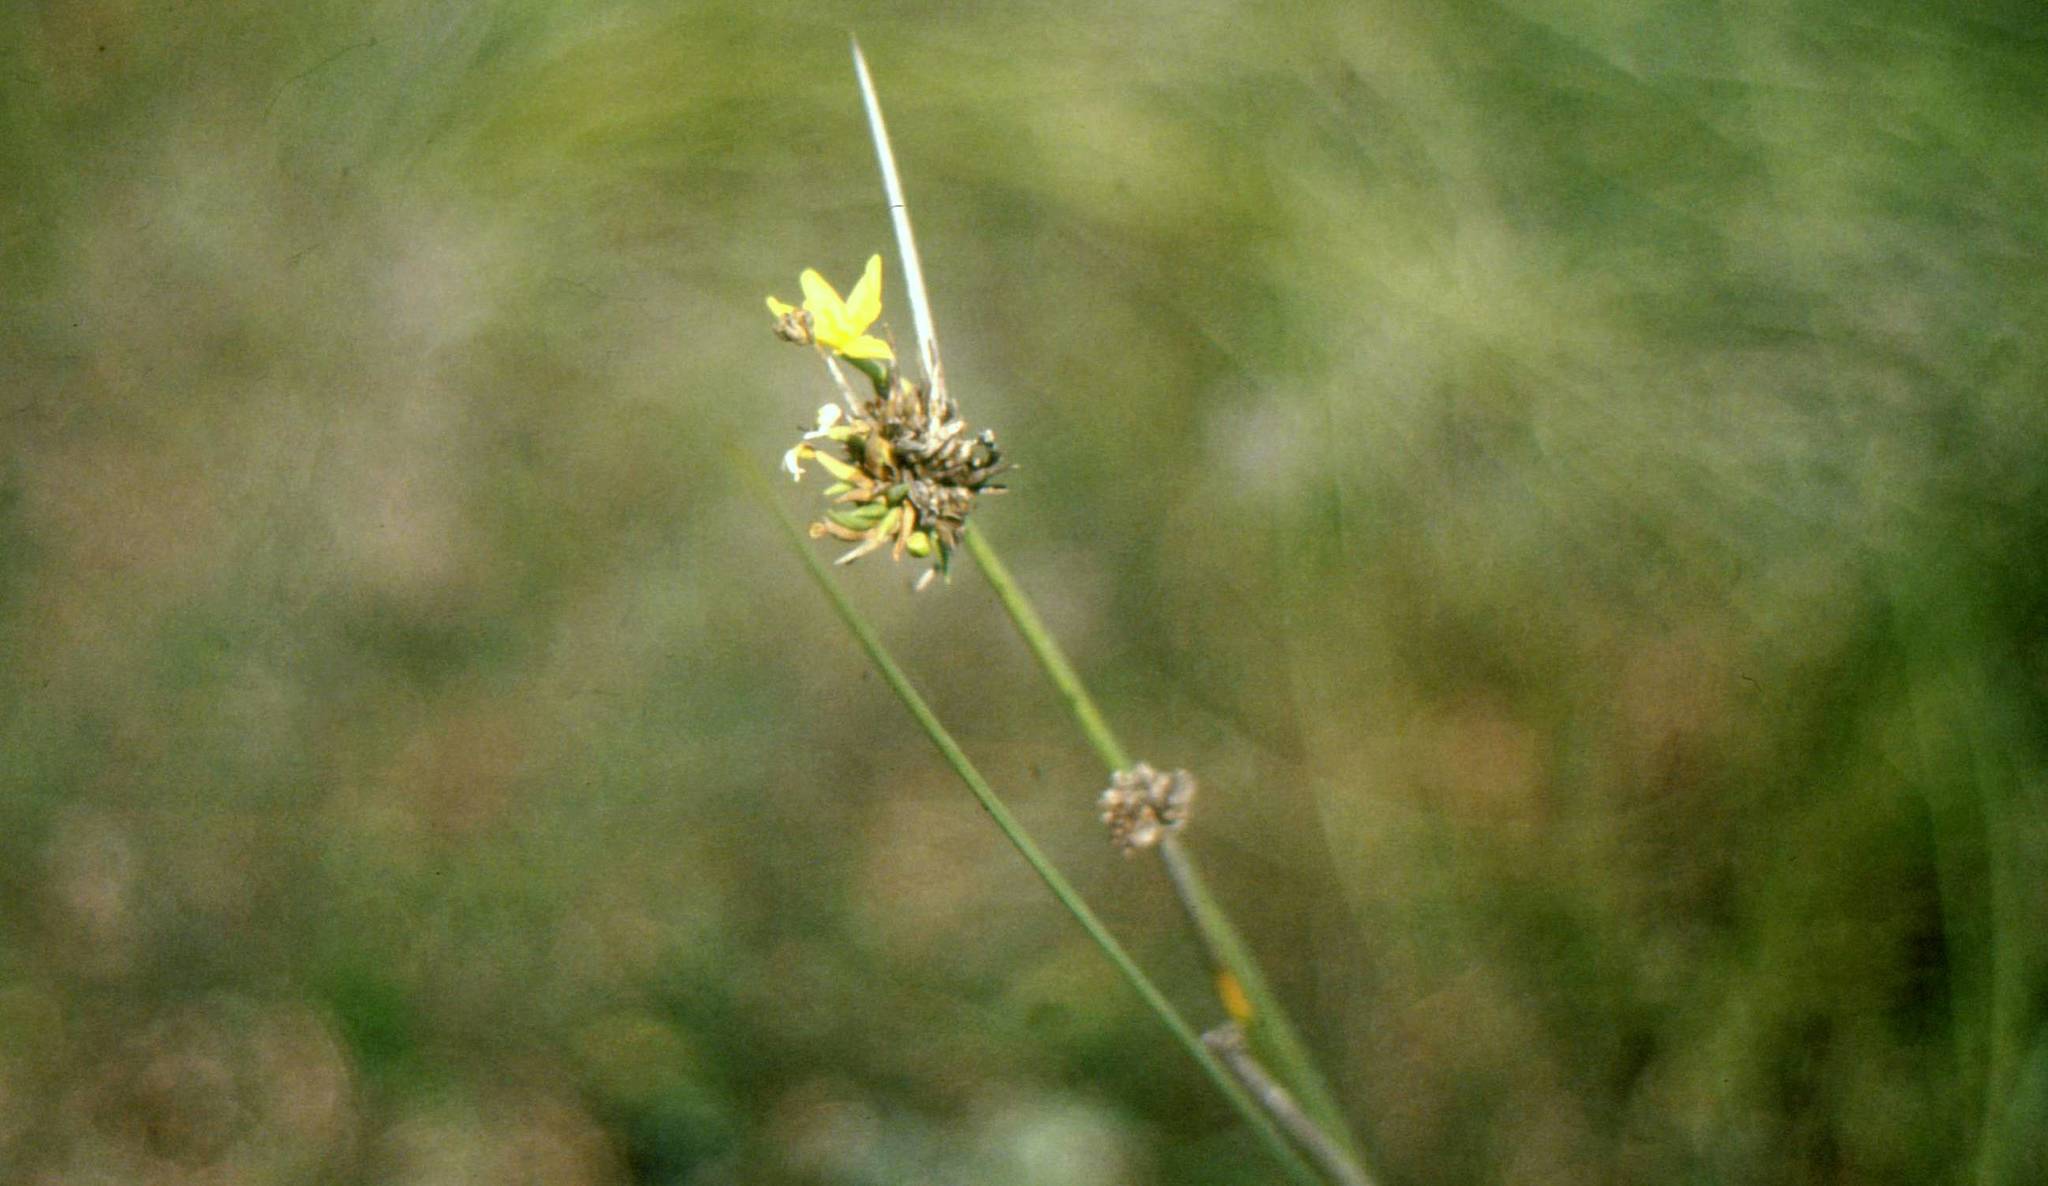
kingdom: Plantae
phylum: Tracheophyta
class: Liliopsida
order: Asparagales
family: Iridaceae
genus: Bobartia
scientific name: Bobartia orientalis
